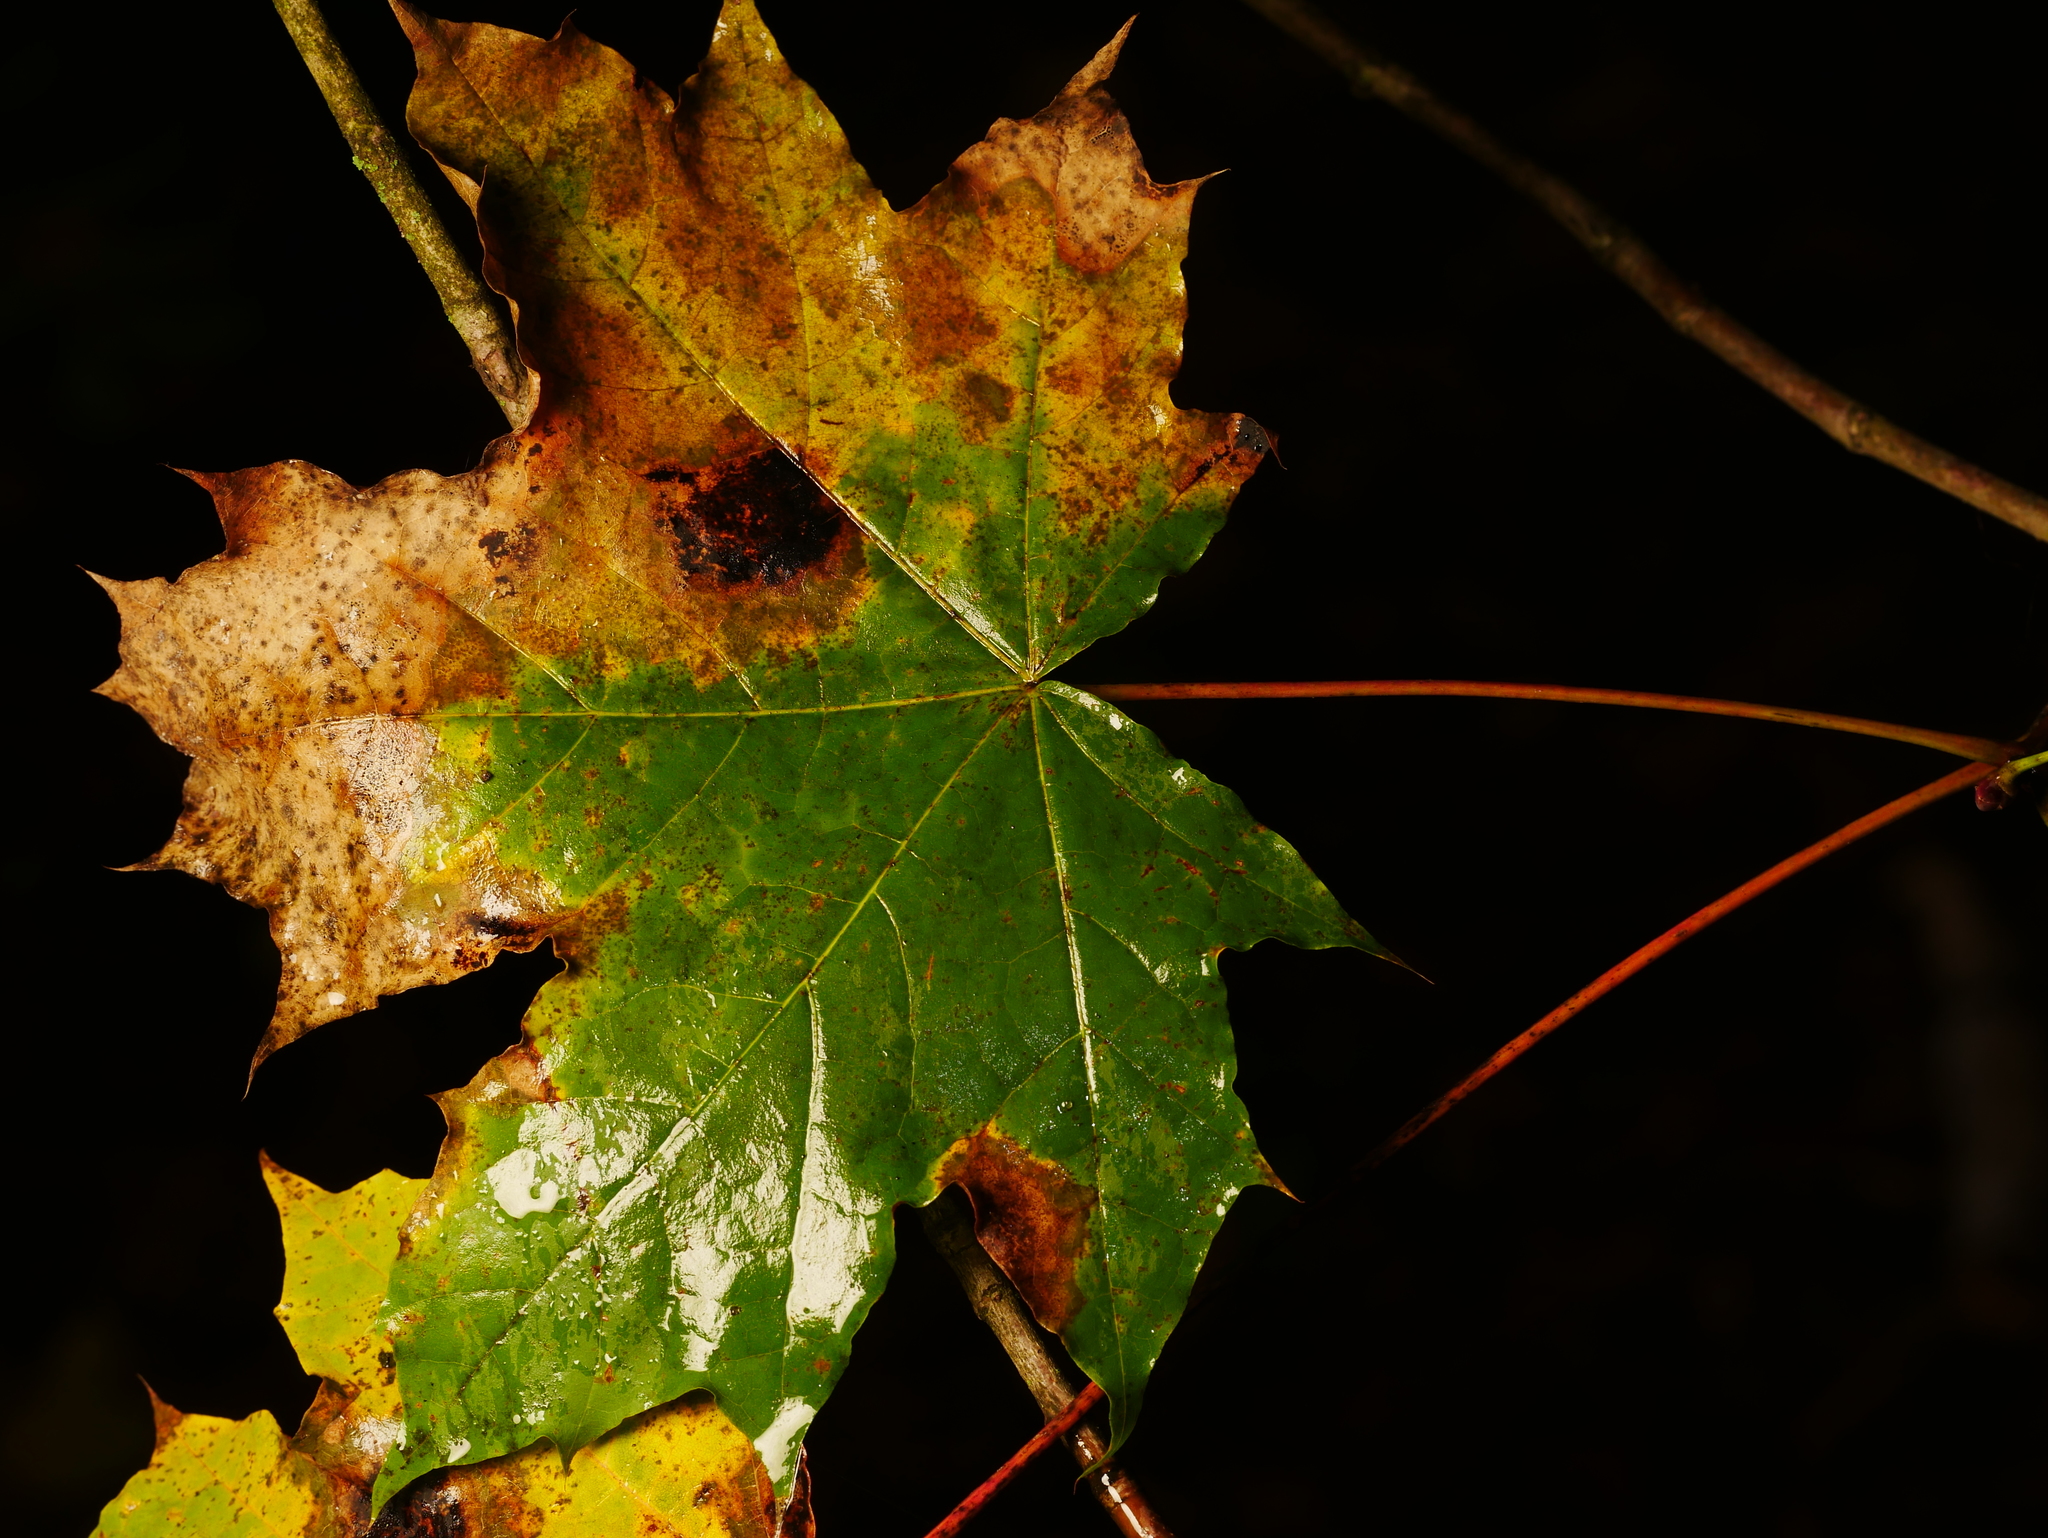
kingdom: Plantae
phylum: Tracheophyta
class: Magnoliopsida
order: Sapindales
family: Sapindaceae
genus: Acer
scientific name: Acer platanoides
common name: Norway maple
